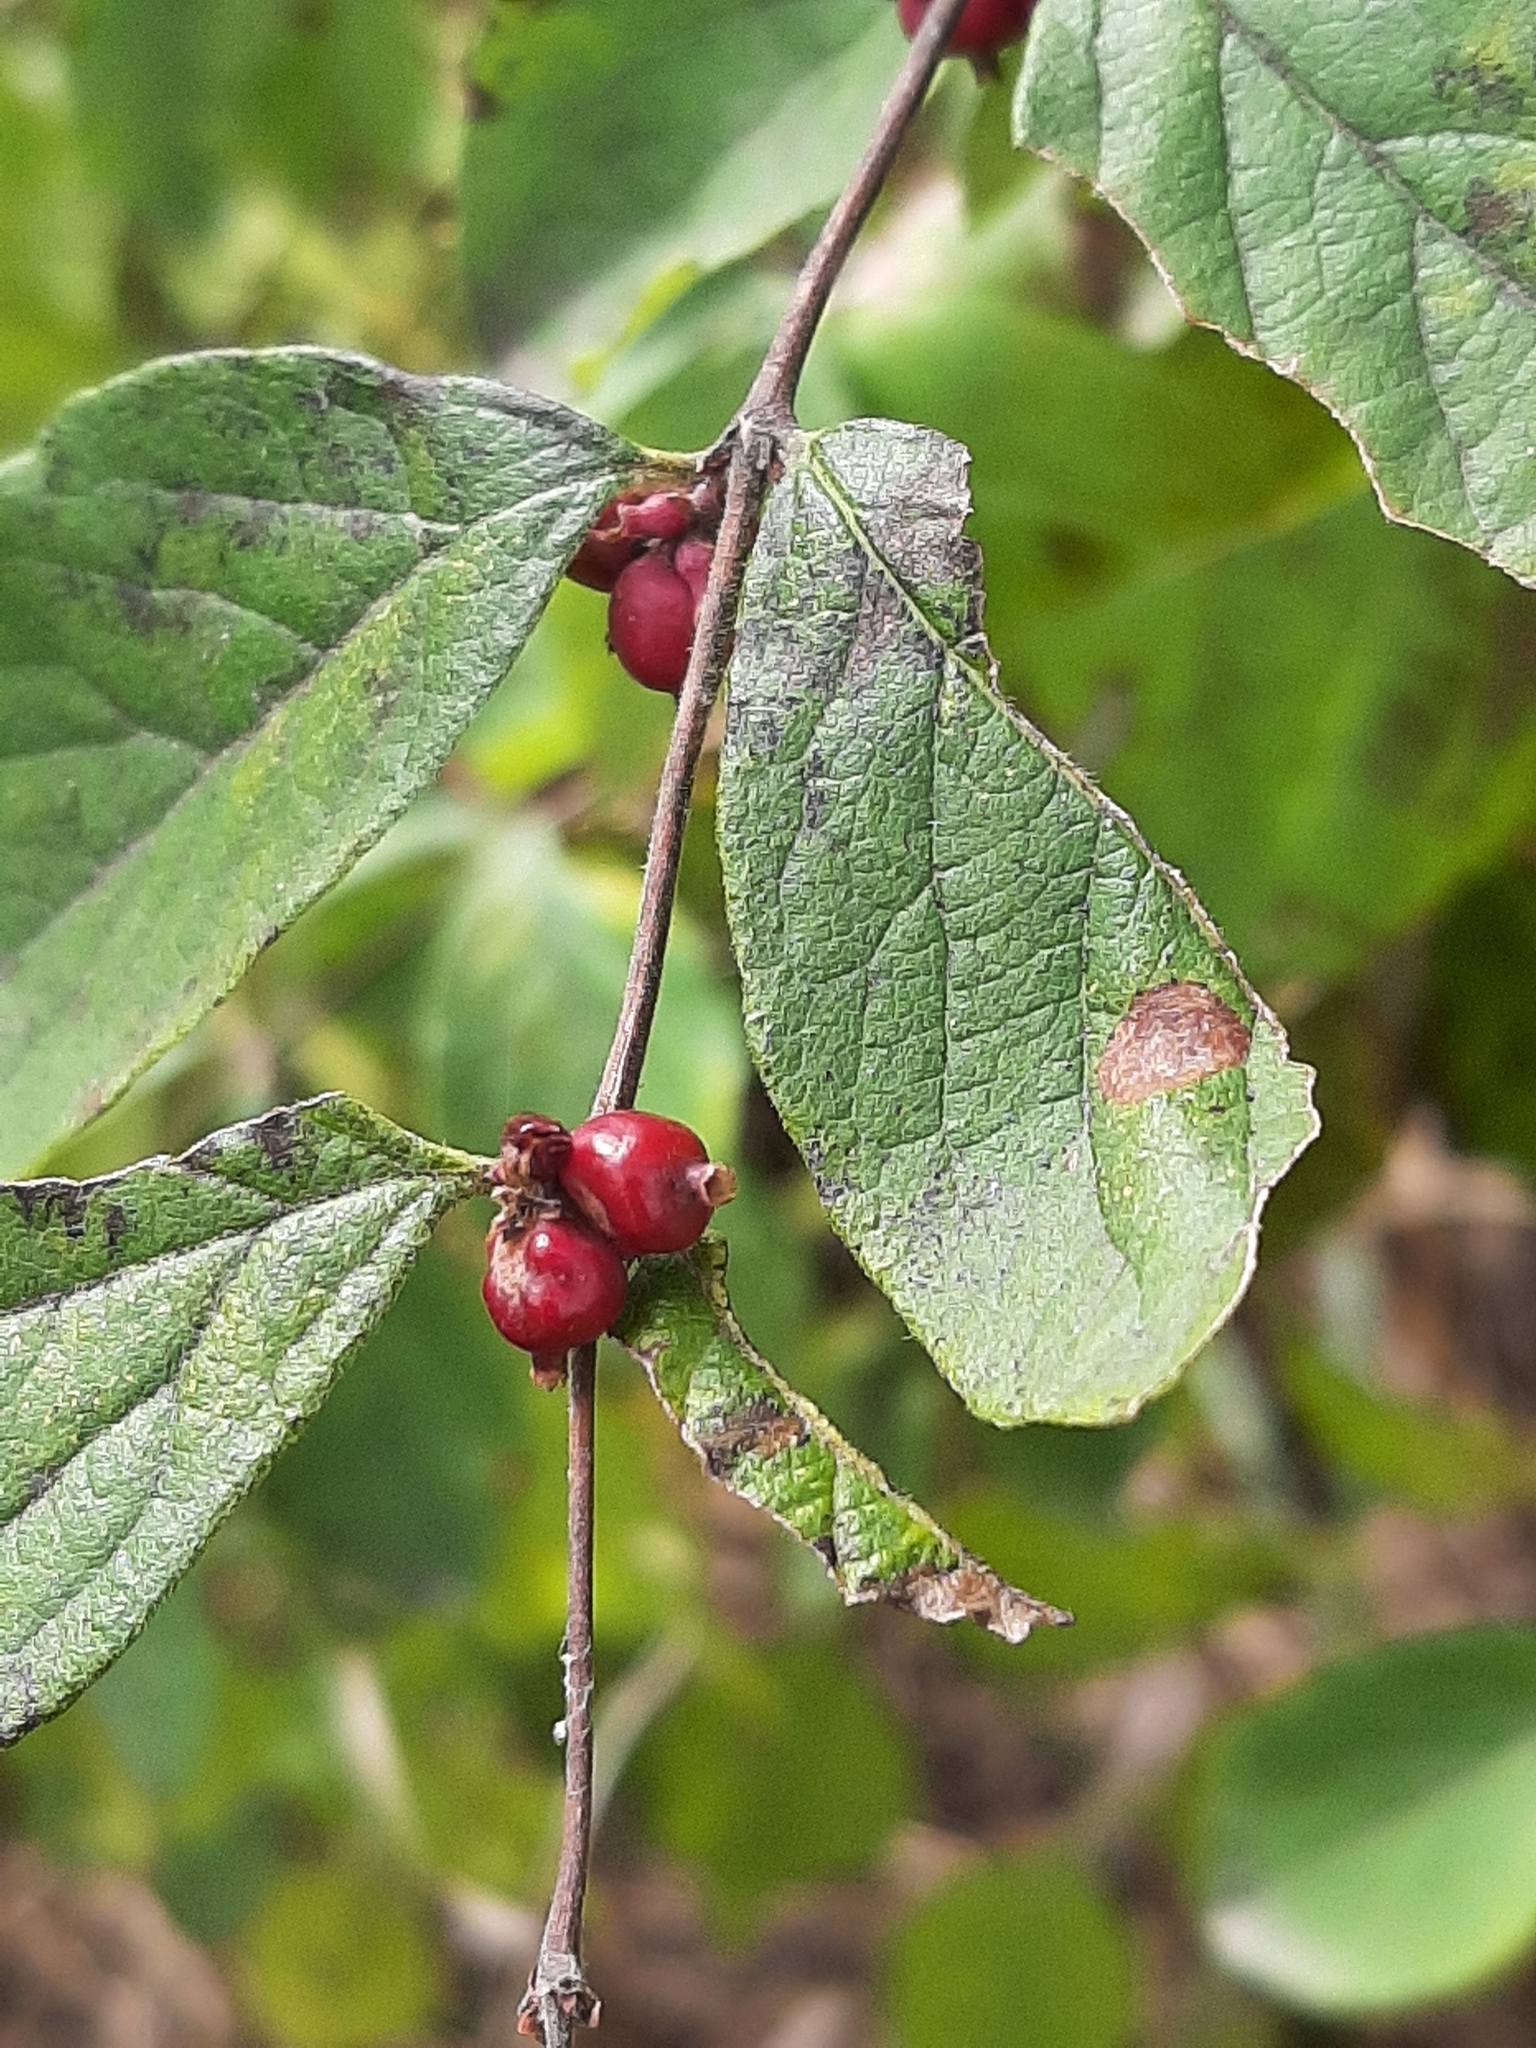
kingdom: Plantae
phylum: Tracheophyta
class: Magnoliopsida
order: Dipsacales
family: Caprifoliaceae
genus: Symphoricarpos
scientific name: Symphoricarpos orbiculatus
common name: Coralberry
